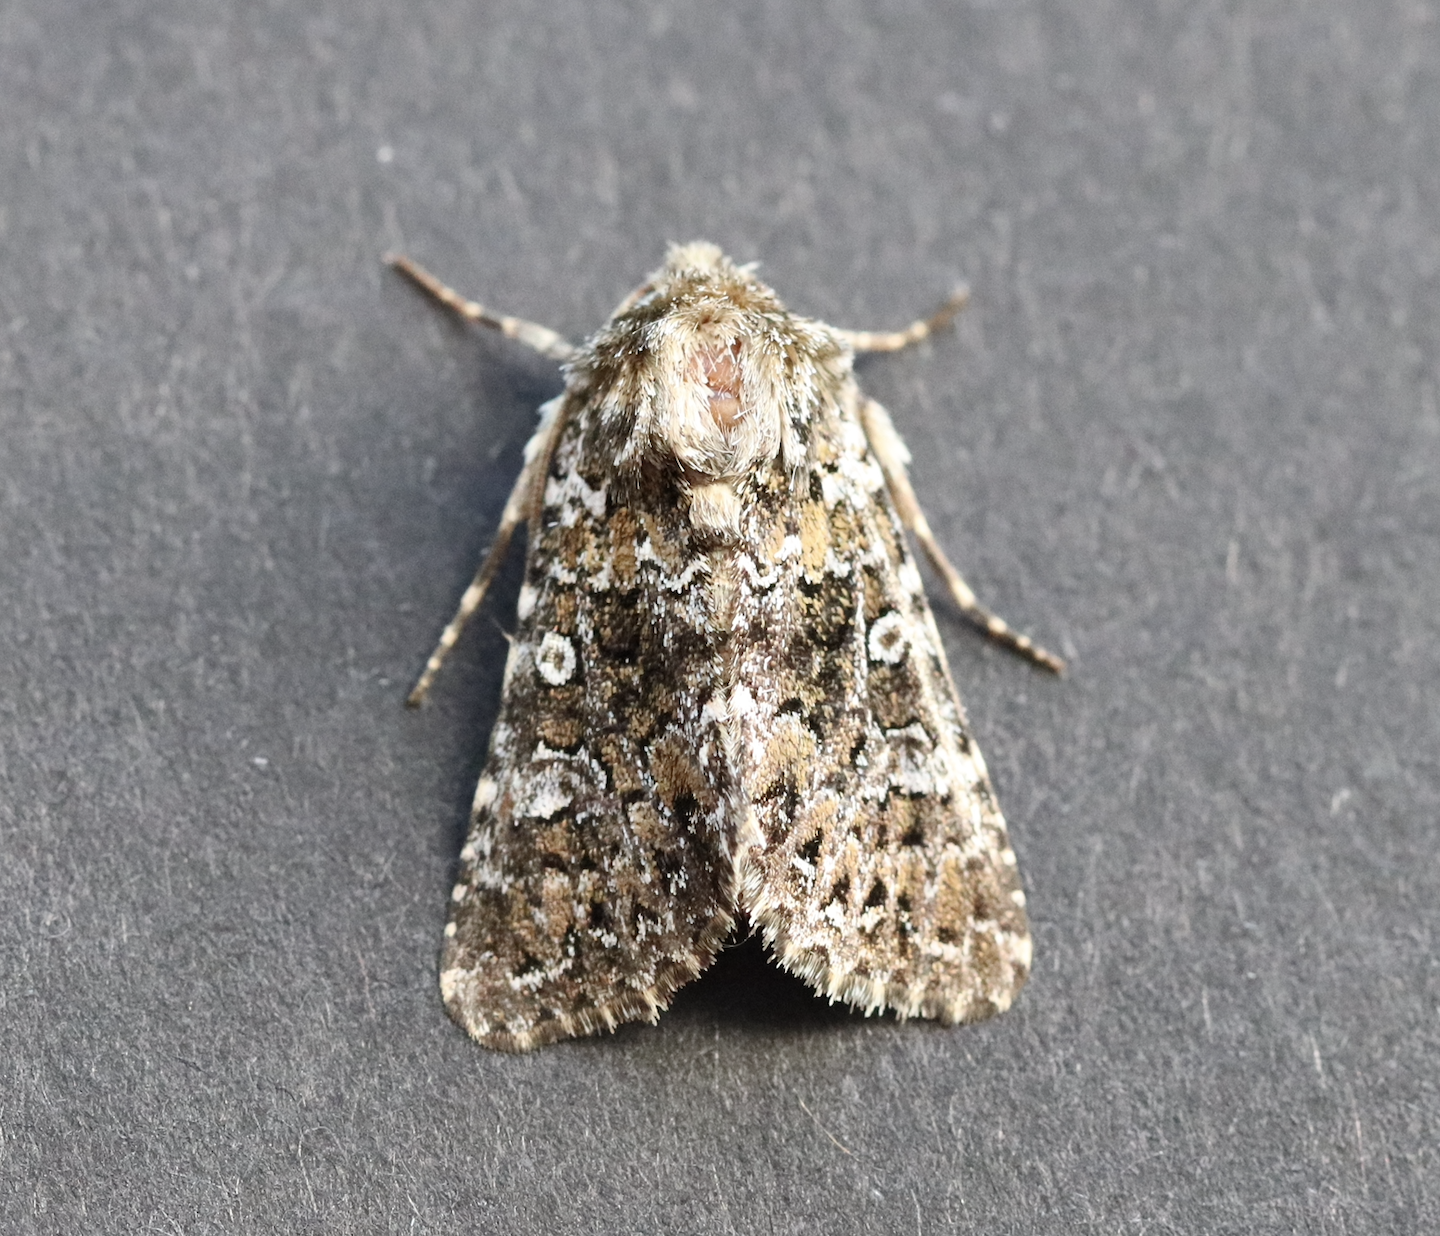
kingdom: Animalia
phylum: Arthropoda
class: Insecta
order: Lepidoptera
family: Noctuidae
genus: Hadena
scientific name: Hadena magnolii
